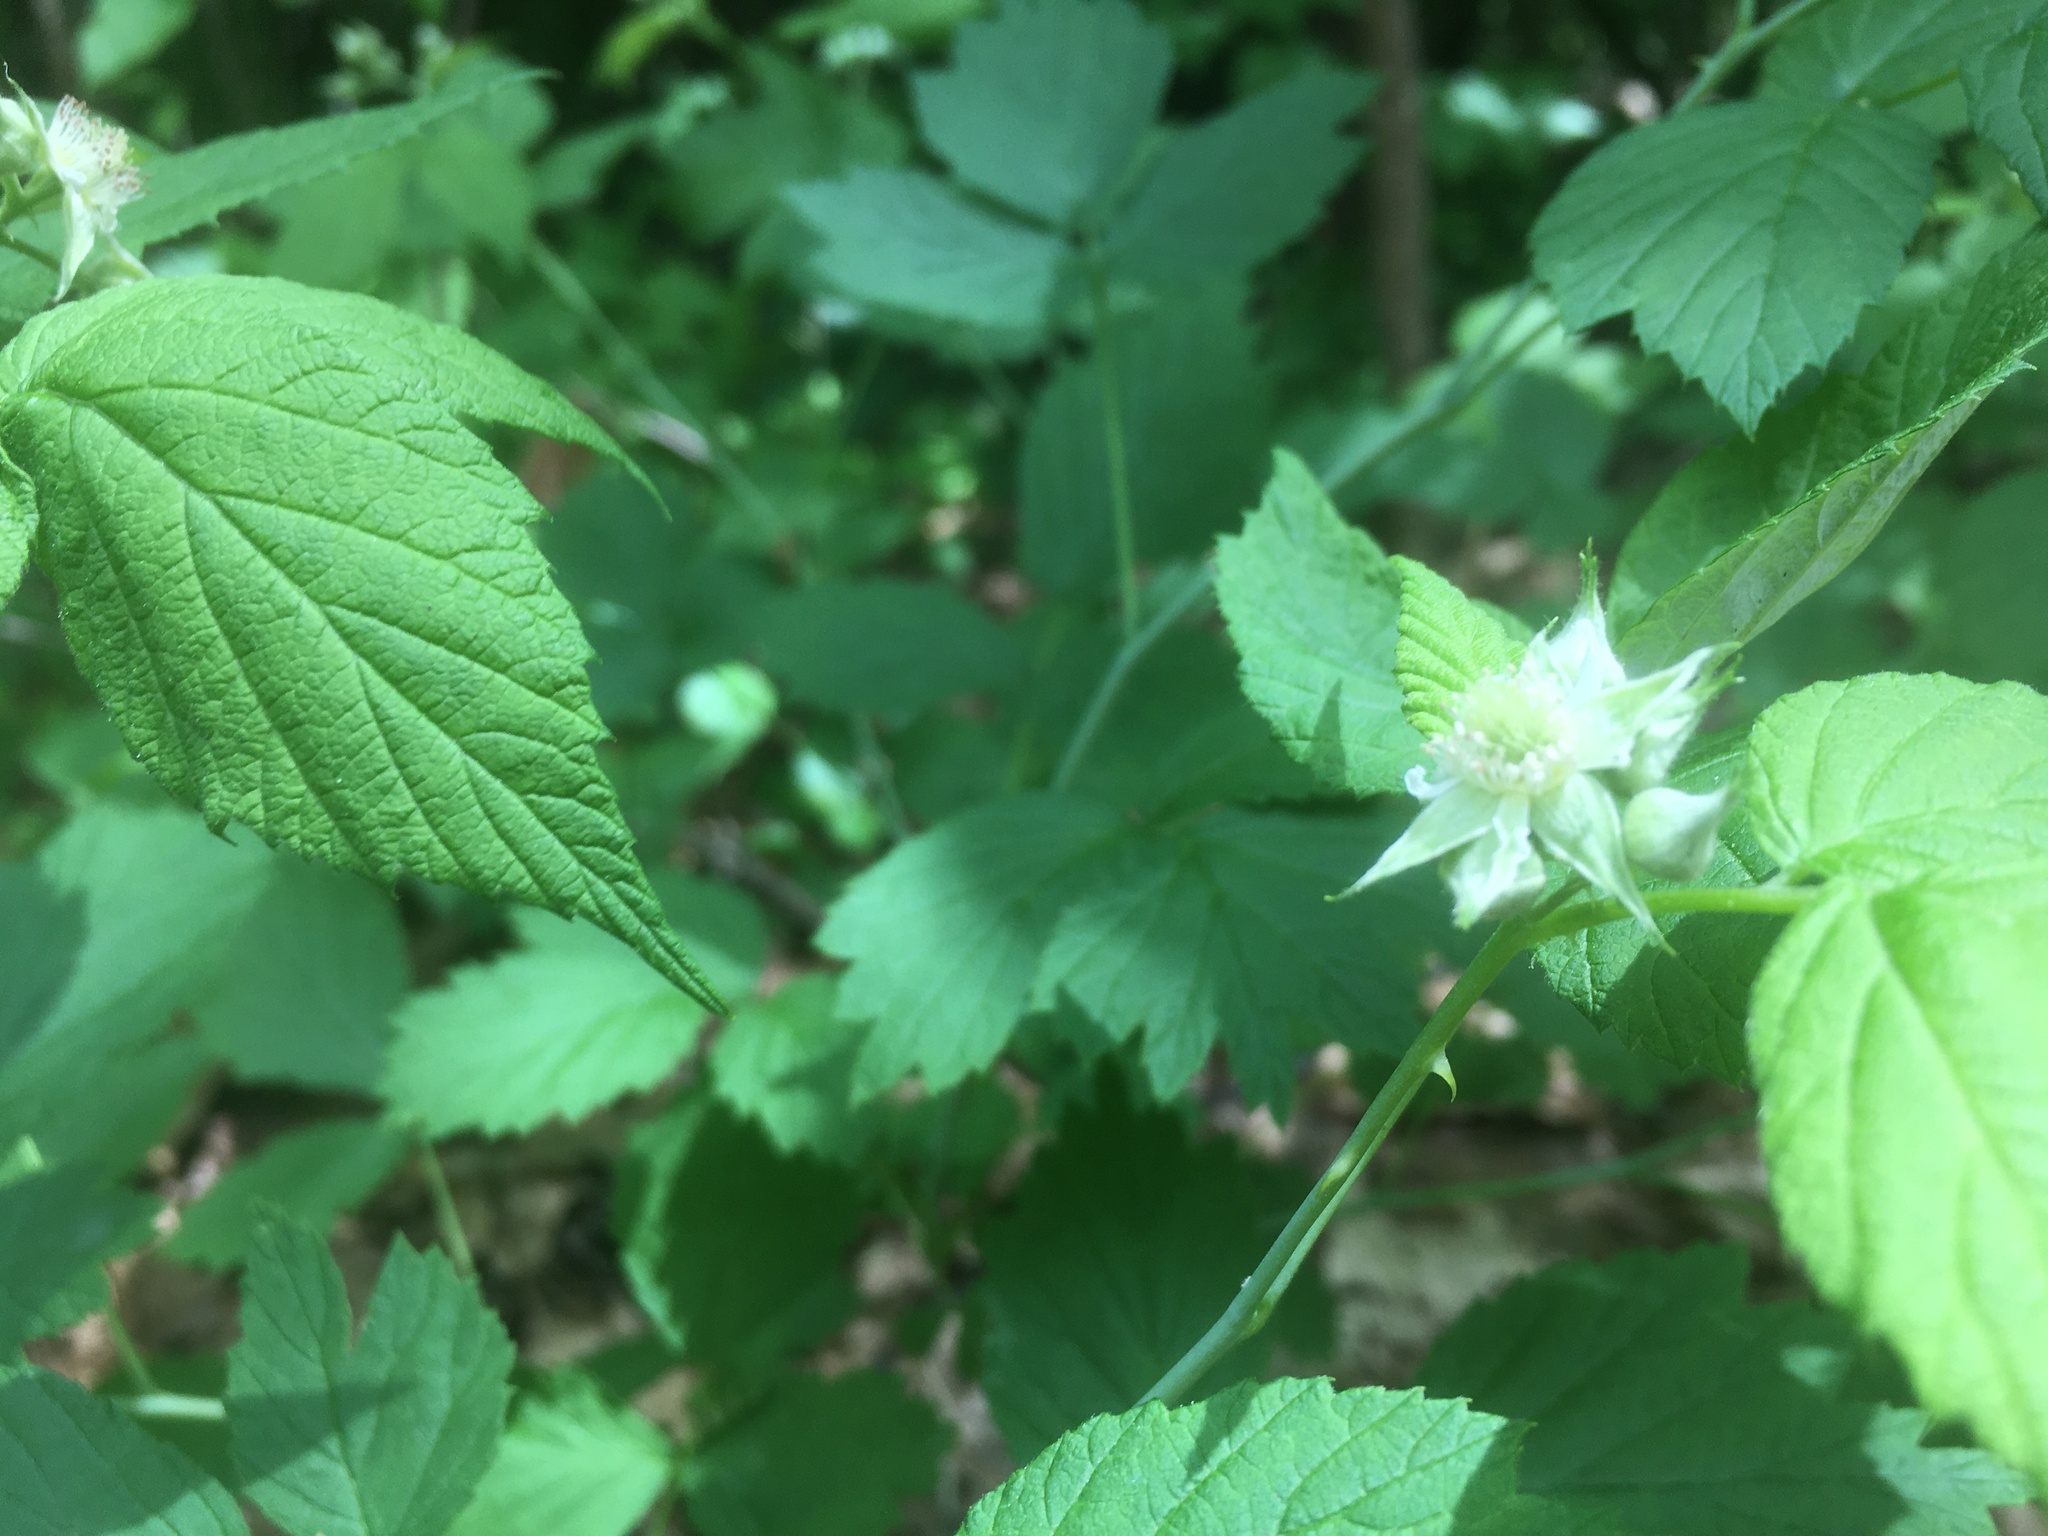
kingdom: Plantae
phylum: Tracheophyta
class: Magnoliopsida
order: Rosales
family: Rosaceae
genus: Rubus
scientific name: Rubus occidentalis
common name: Black raspberry
